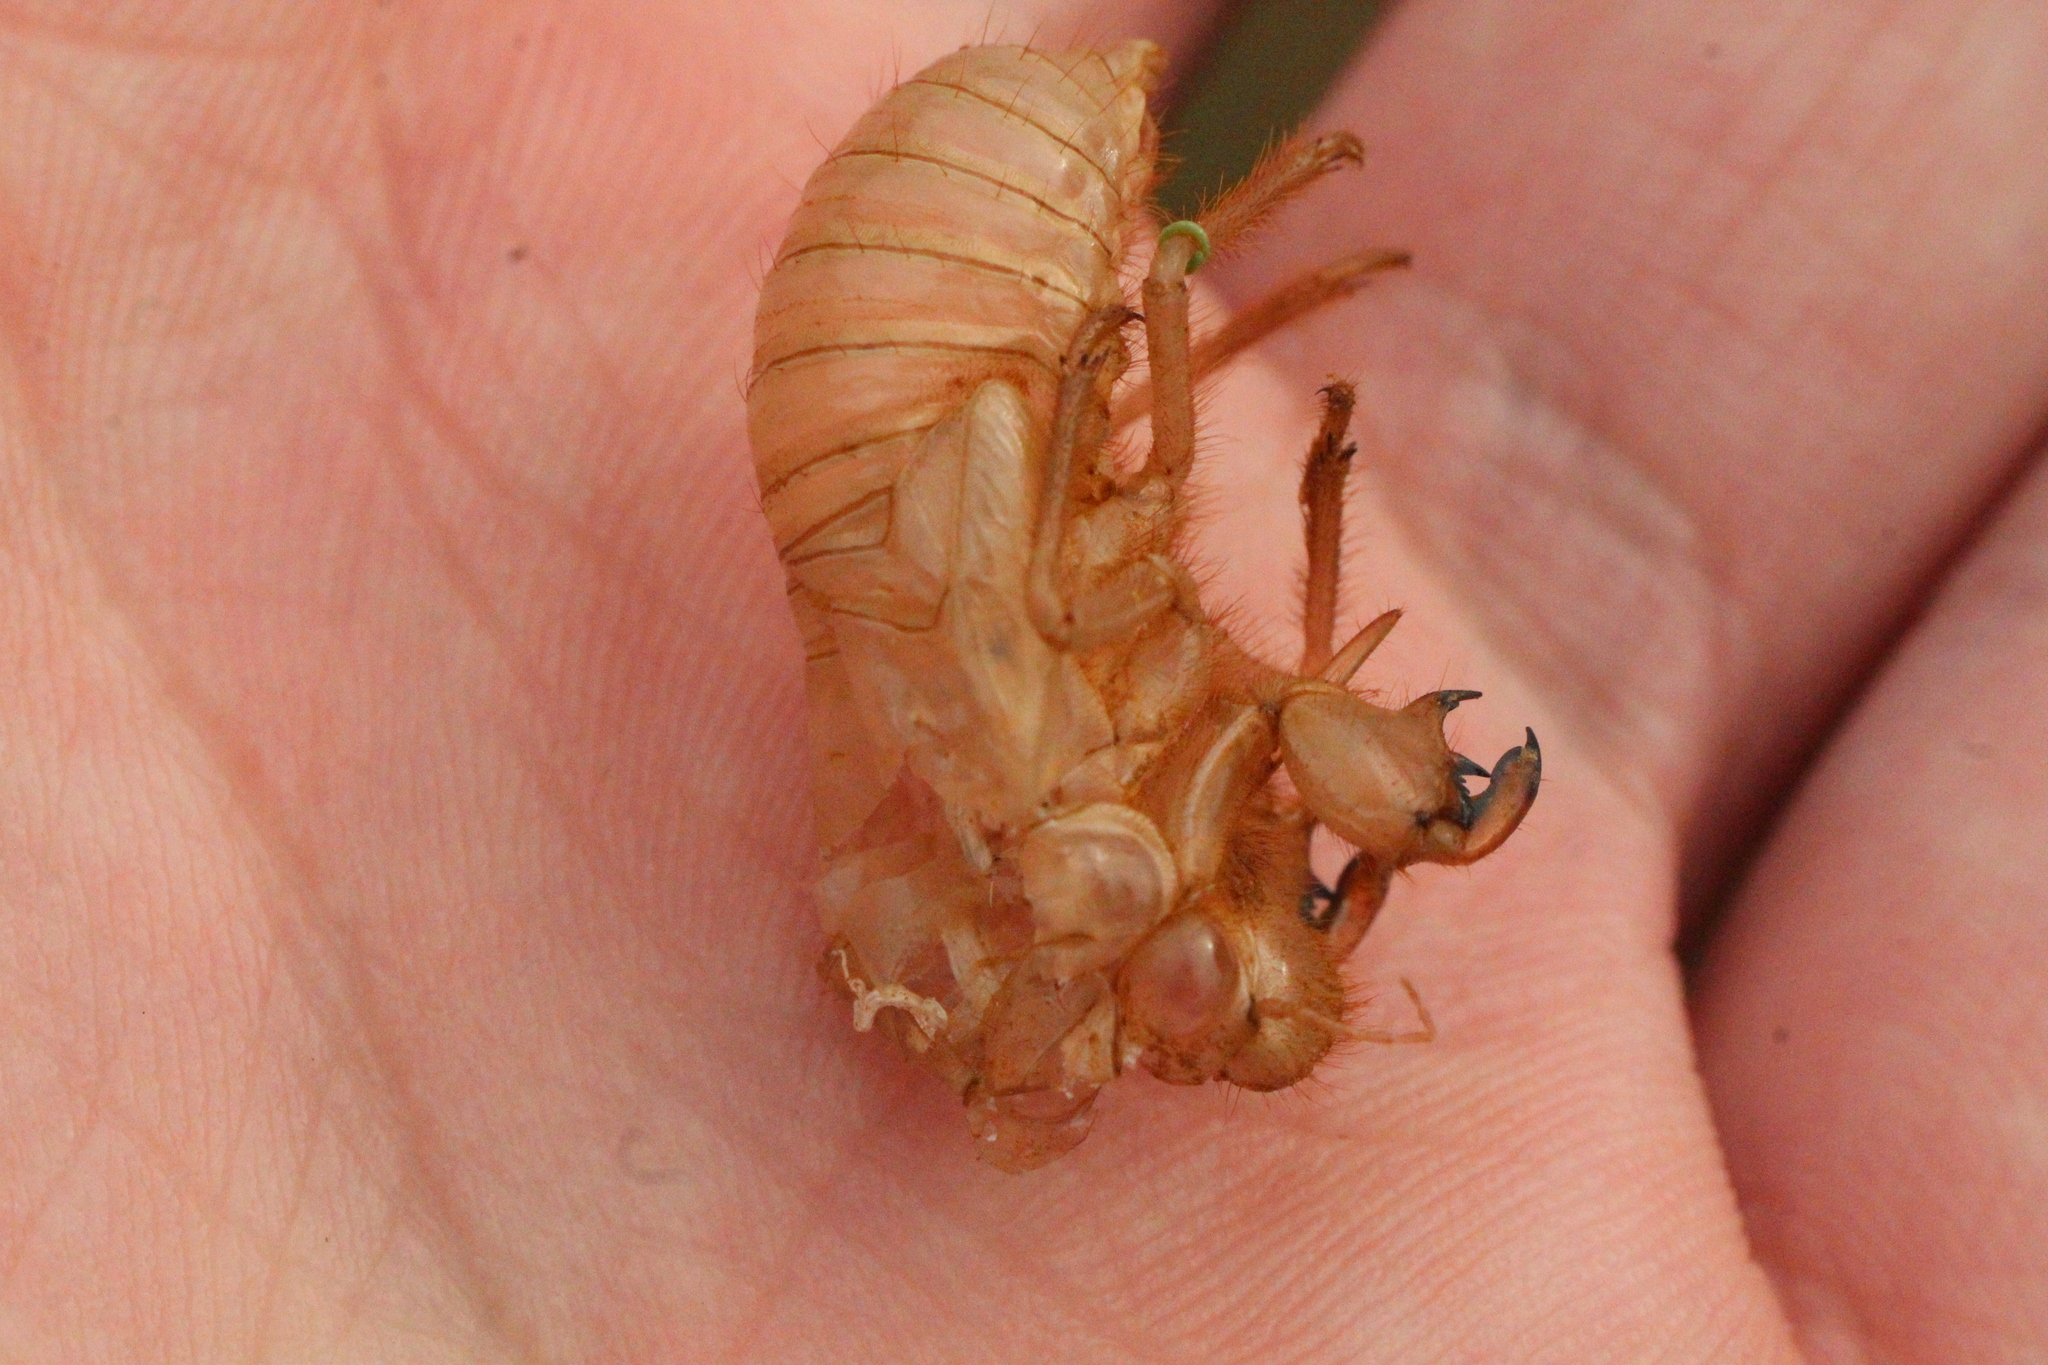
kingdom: Animalia
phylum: Arthropoda
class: Insecta
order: Hemiptera
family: Cicadidae
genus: Cicada
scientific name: Cicada orni
